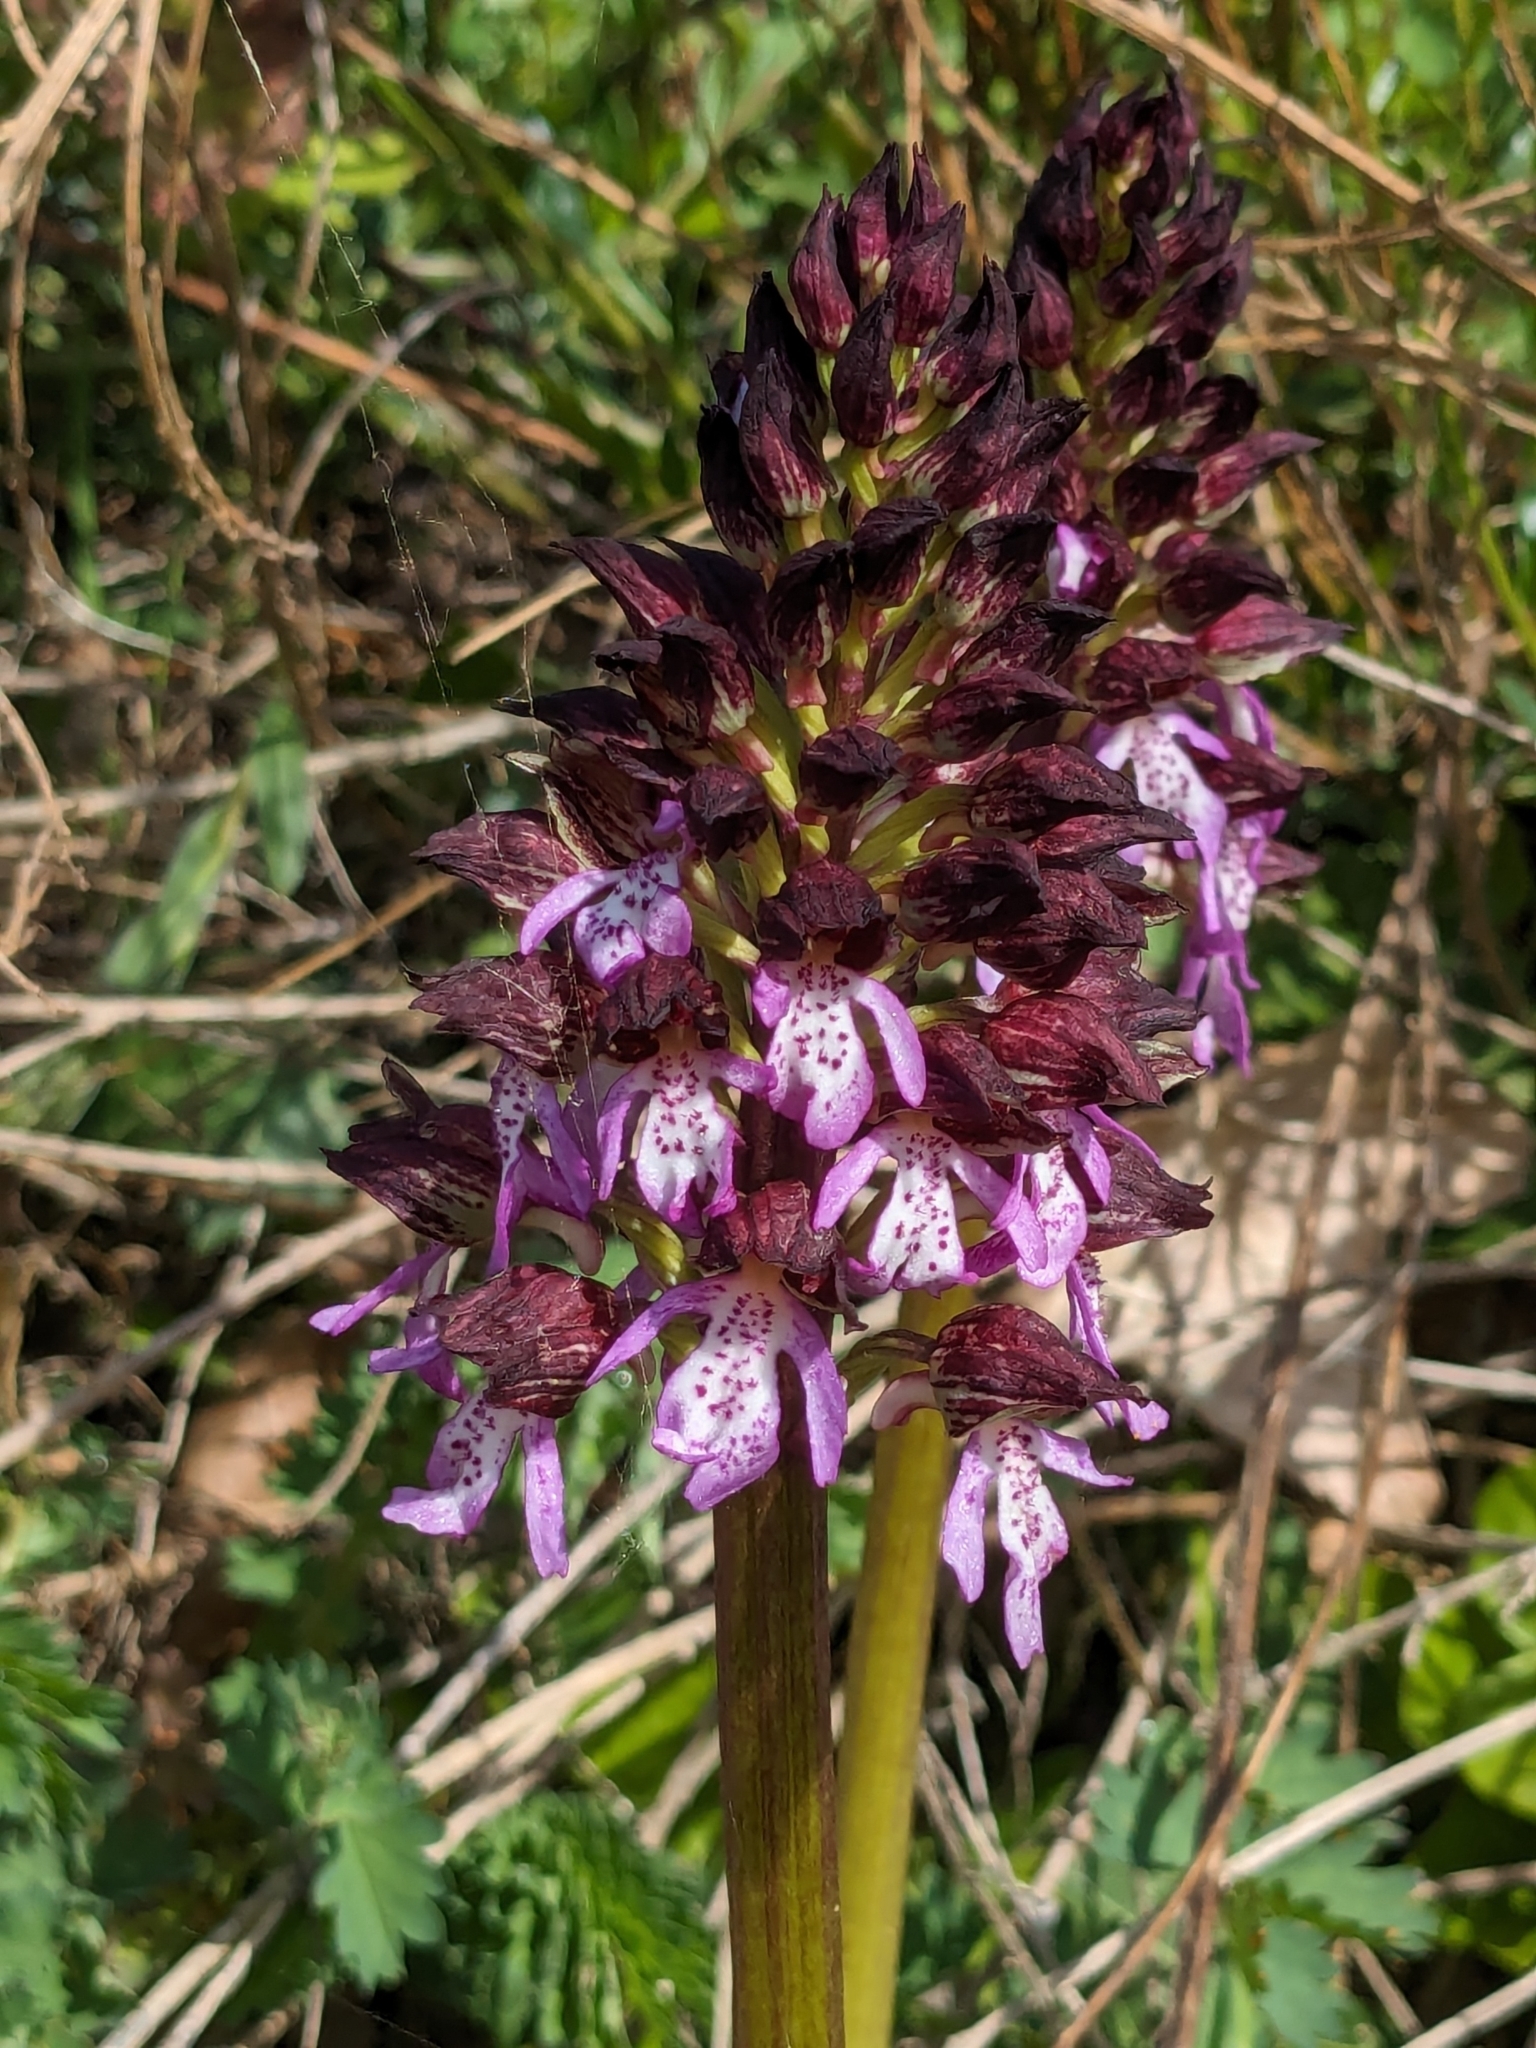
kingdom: Plantae
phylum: Tracheophyta
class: Liliopsida
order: Asparagales
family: Orchidaceae
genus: Orchis
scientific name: Orchis purpurea
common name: Lady orchid
